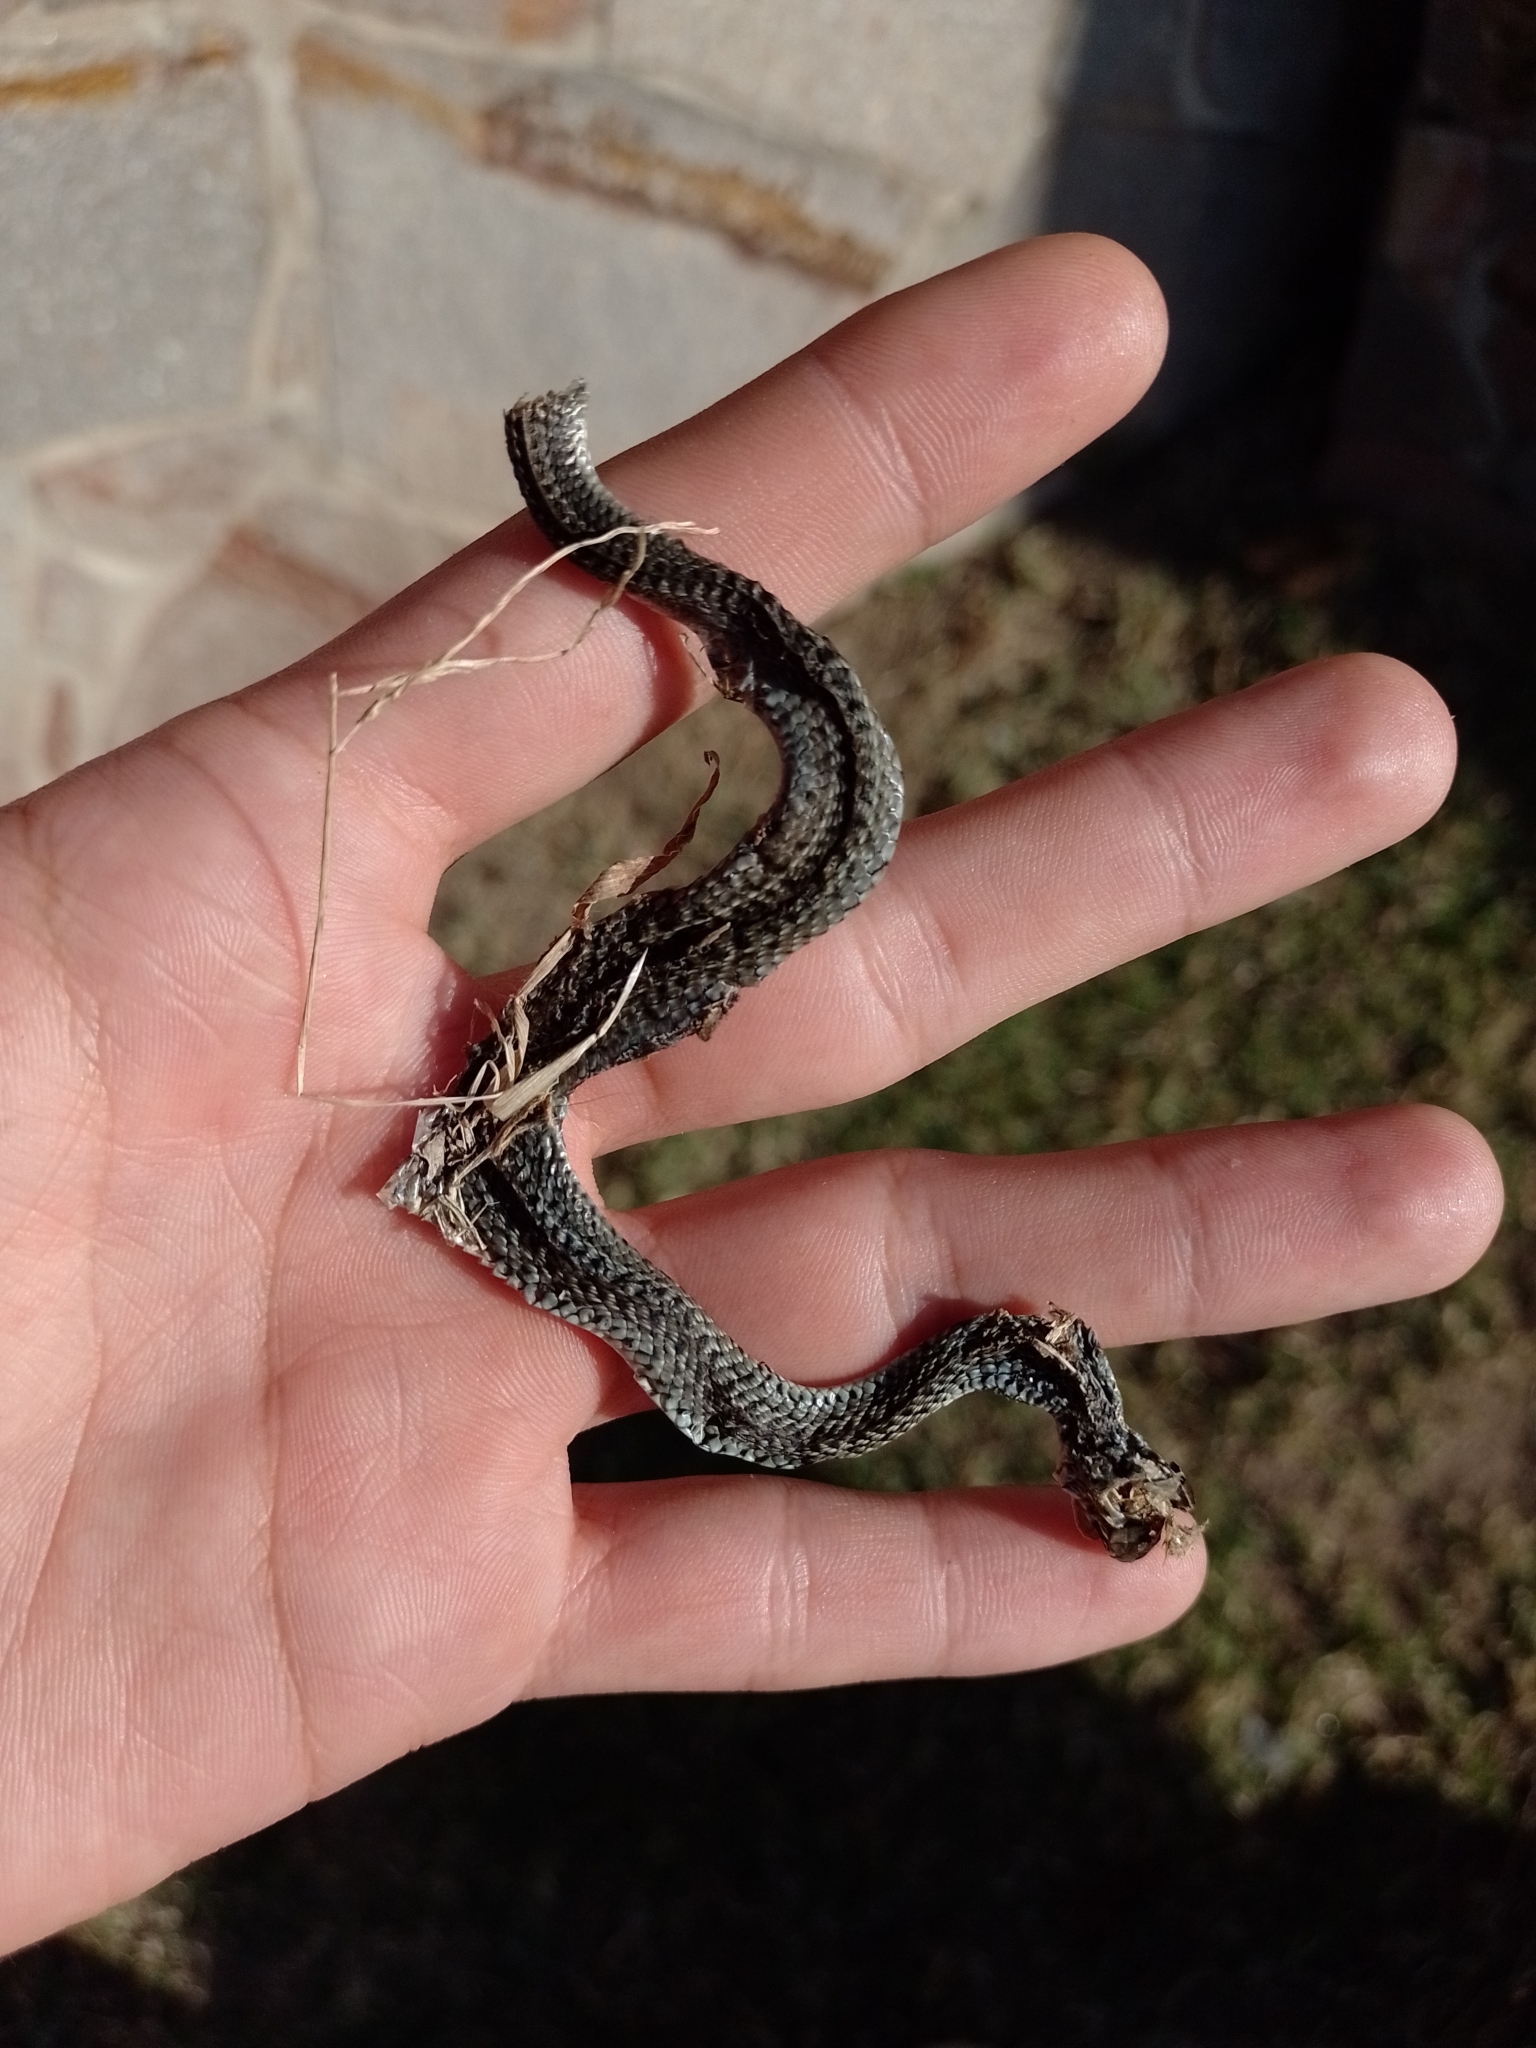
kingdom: Animalia
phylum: Chordata
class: Squamata
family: Colubridae
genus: Philodryas
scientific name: Philodryas patagoniensis
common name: Patagonia green racer
